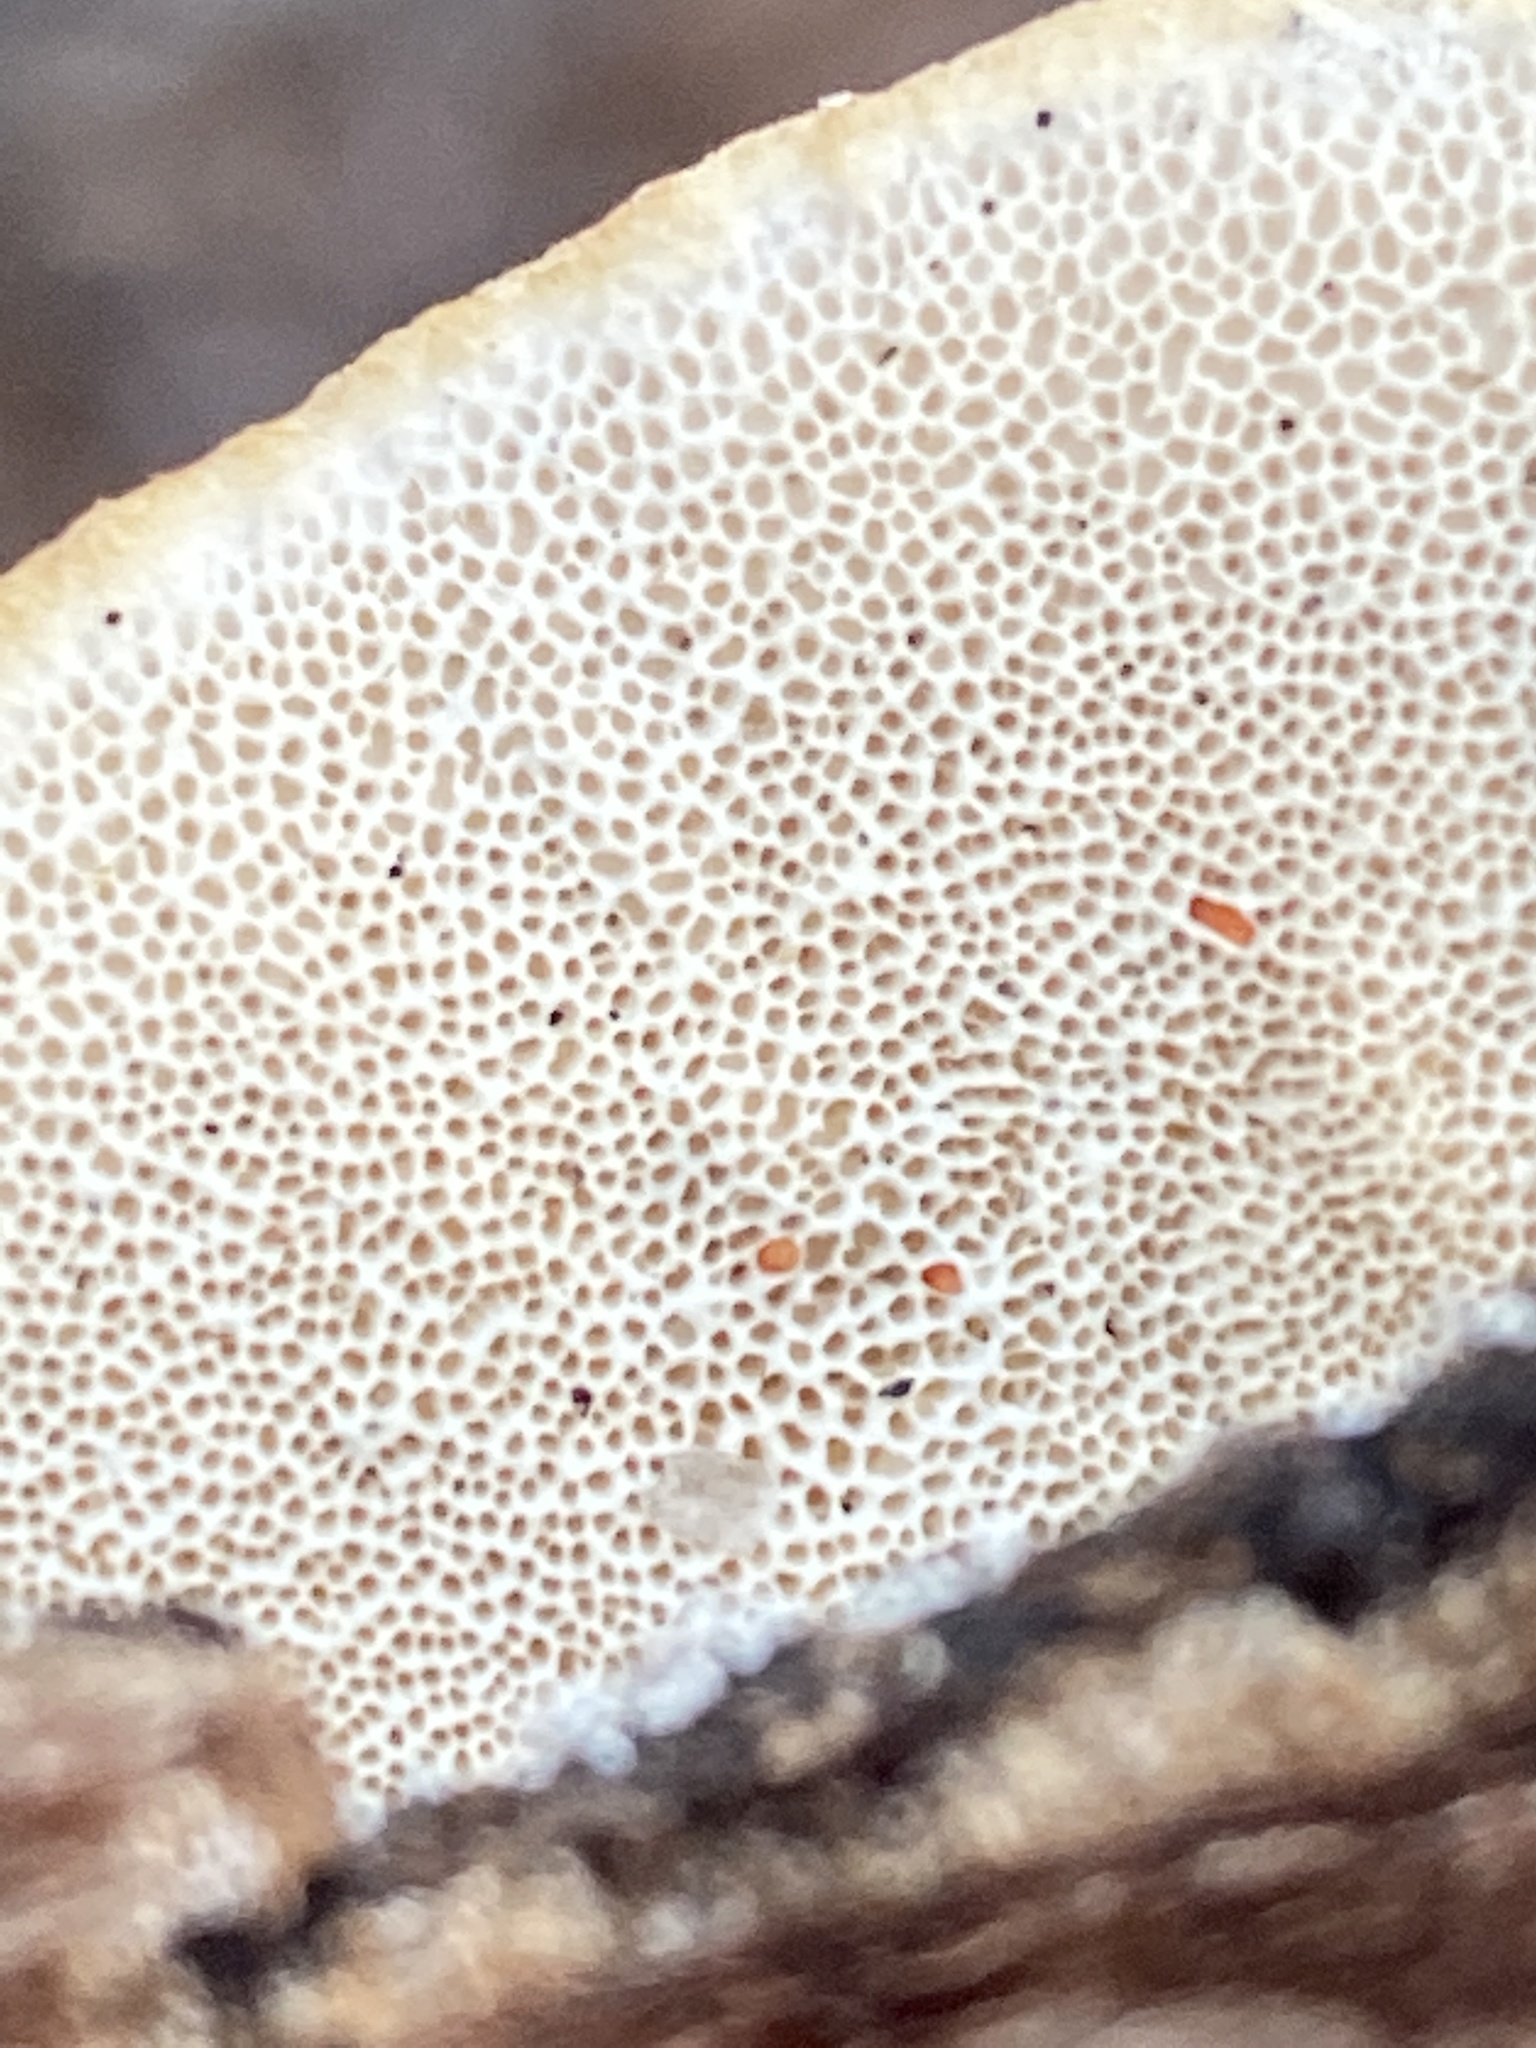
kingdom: Fungi
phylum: Basidiomycota
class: Agaricomycetes
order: Polyporales
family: Polyporaceae
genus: Trametes
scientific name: Trametes hirsuta
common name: Hairy bracket
